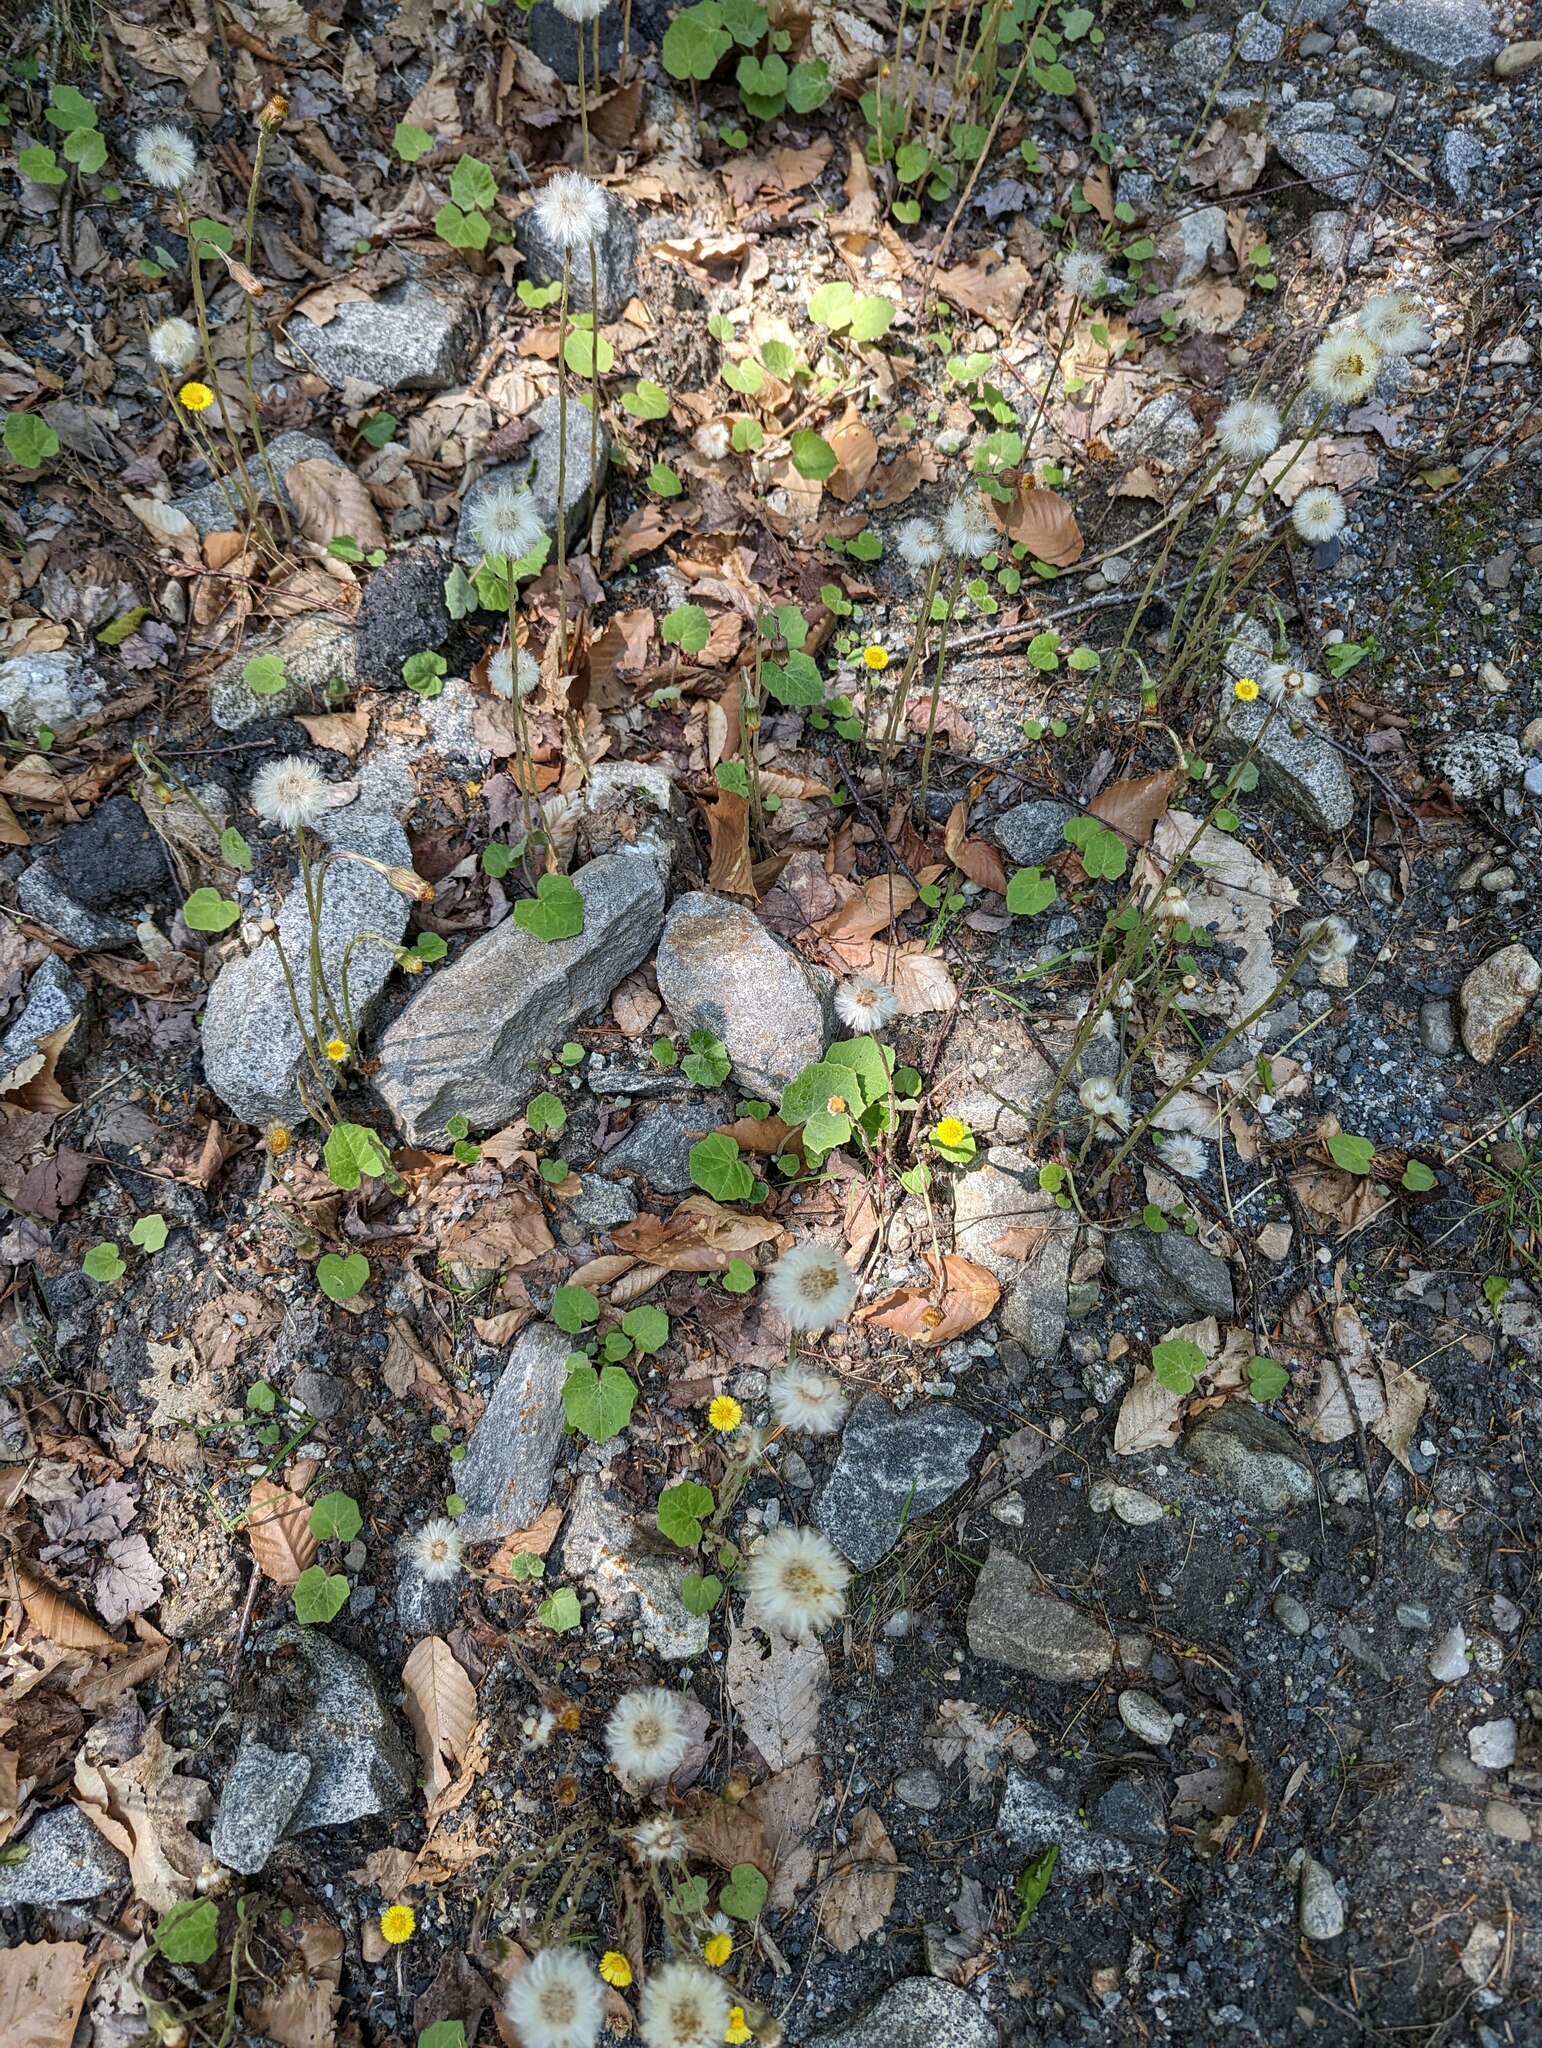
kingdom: Plantae
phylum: Tracheophyta
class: Magnoliopsida
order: Asterales
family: Asteraceae
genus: Tussilago
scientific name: Tussilago farfara
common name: Coltsfoot
